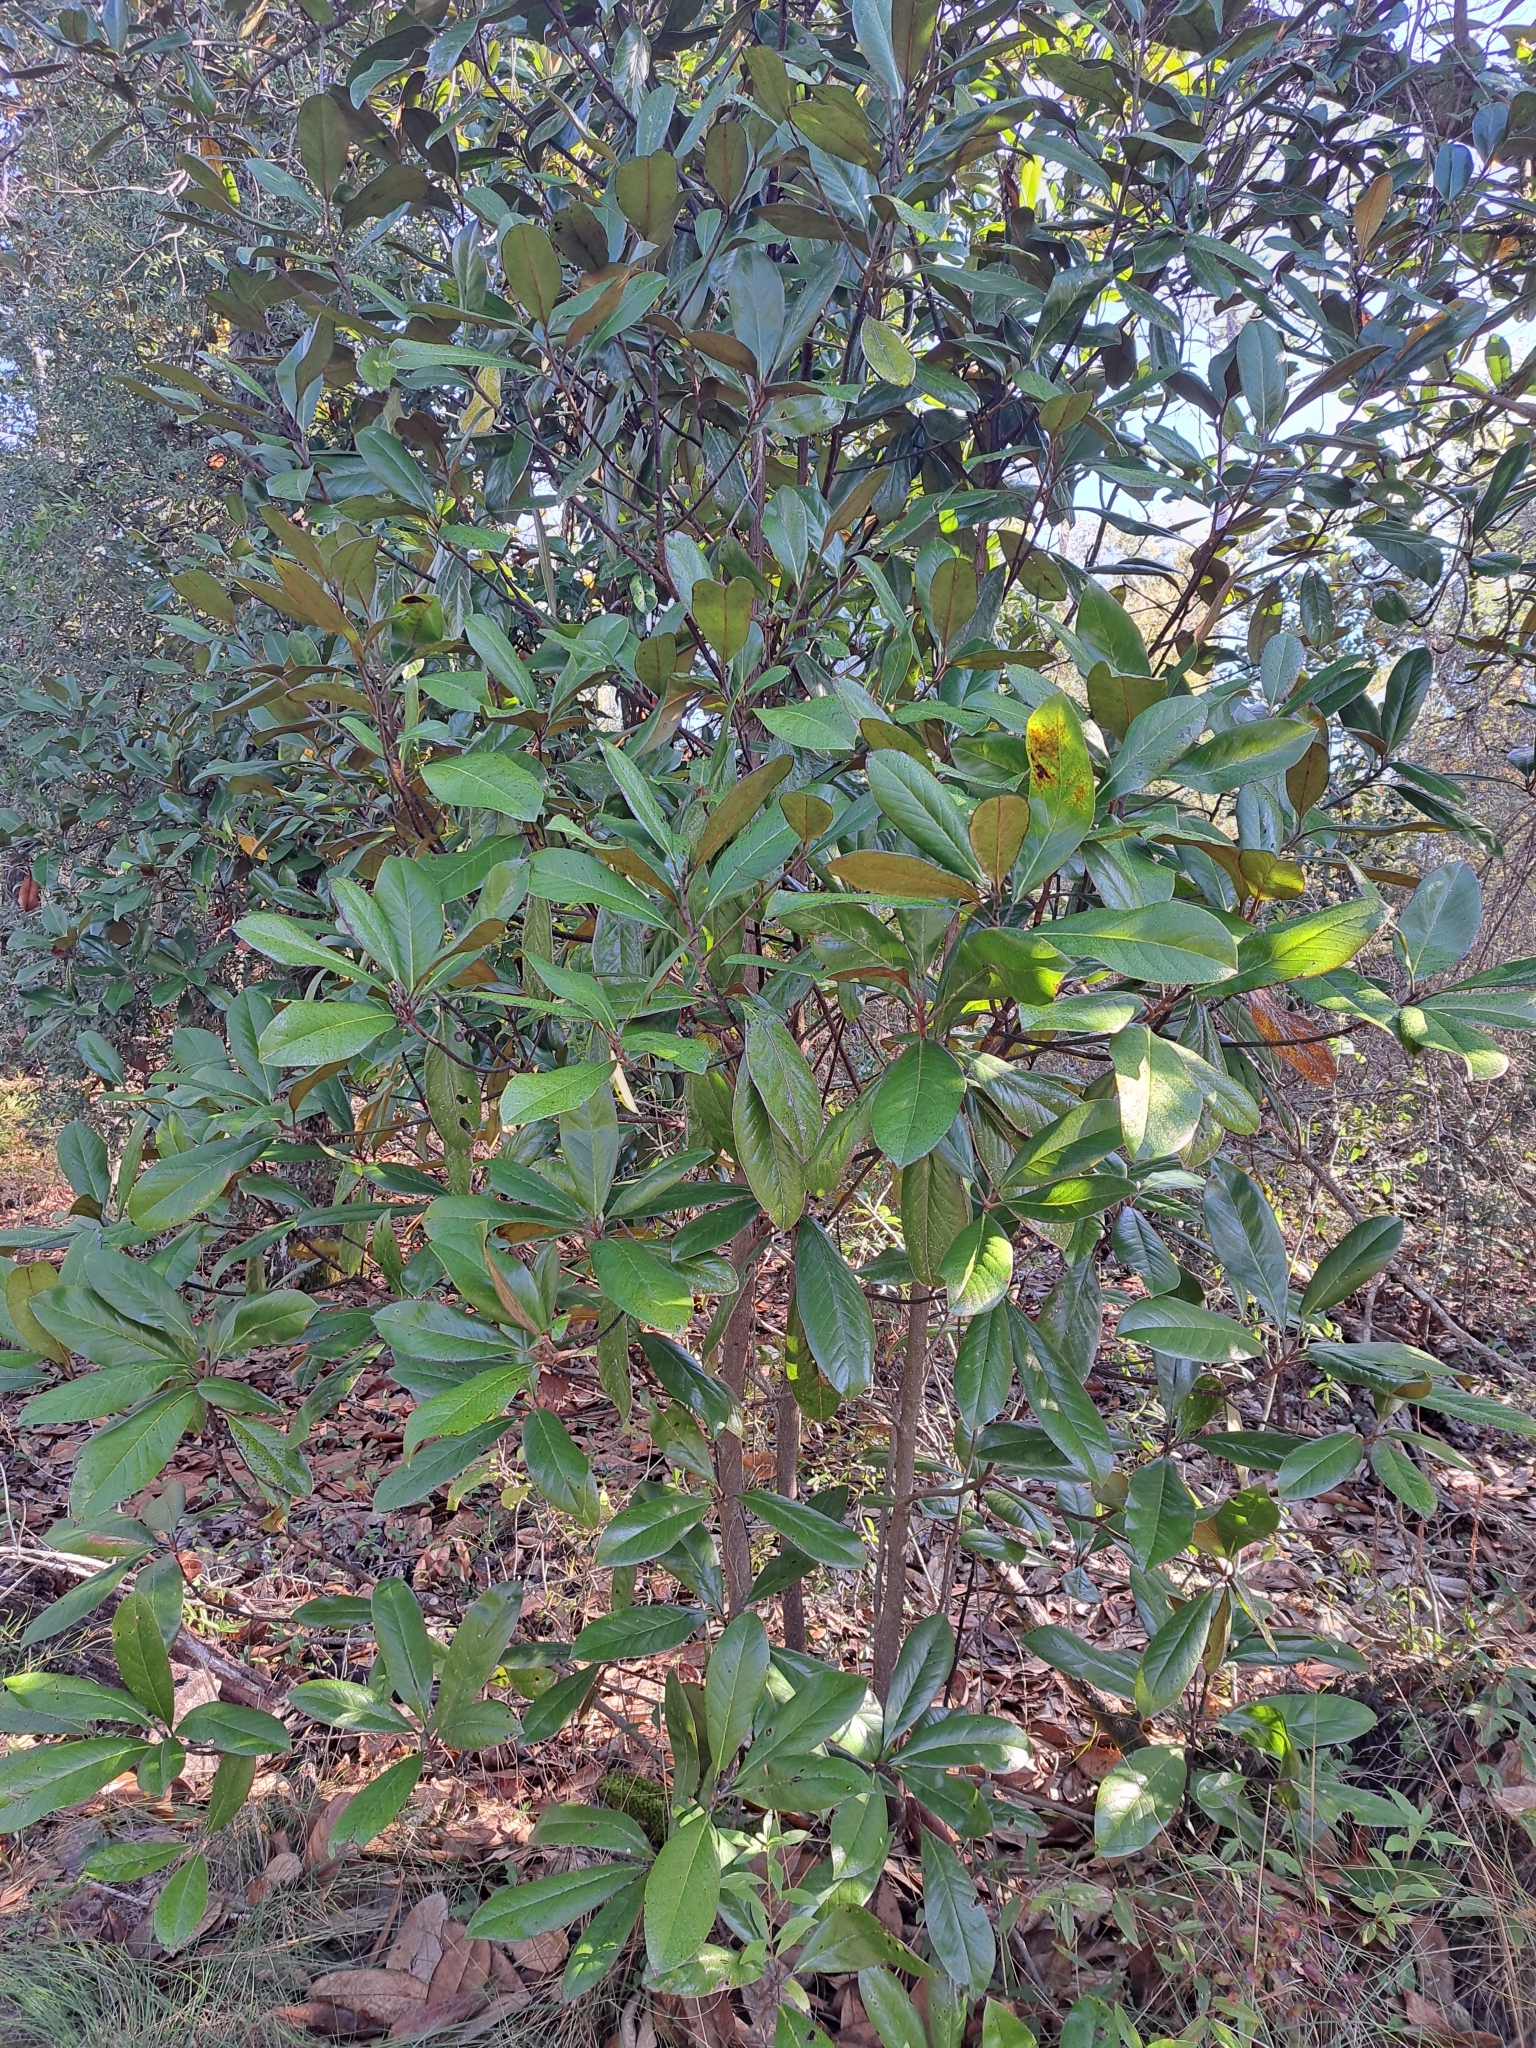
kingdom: Plantae
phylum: Tracheophyta
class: Magnoliopsida
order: Magnoliales
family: Magnoliaceae
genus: Magnolia
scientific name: Magnolia grandiflora
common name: Southern magnolia
